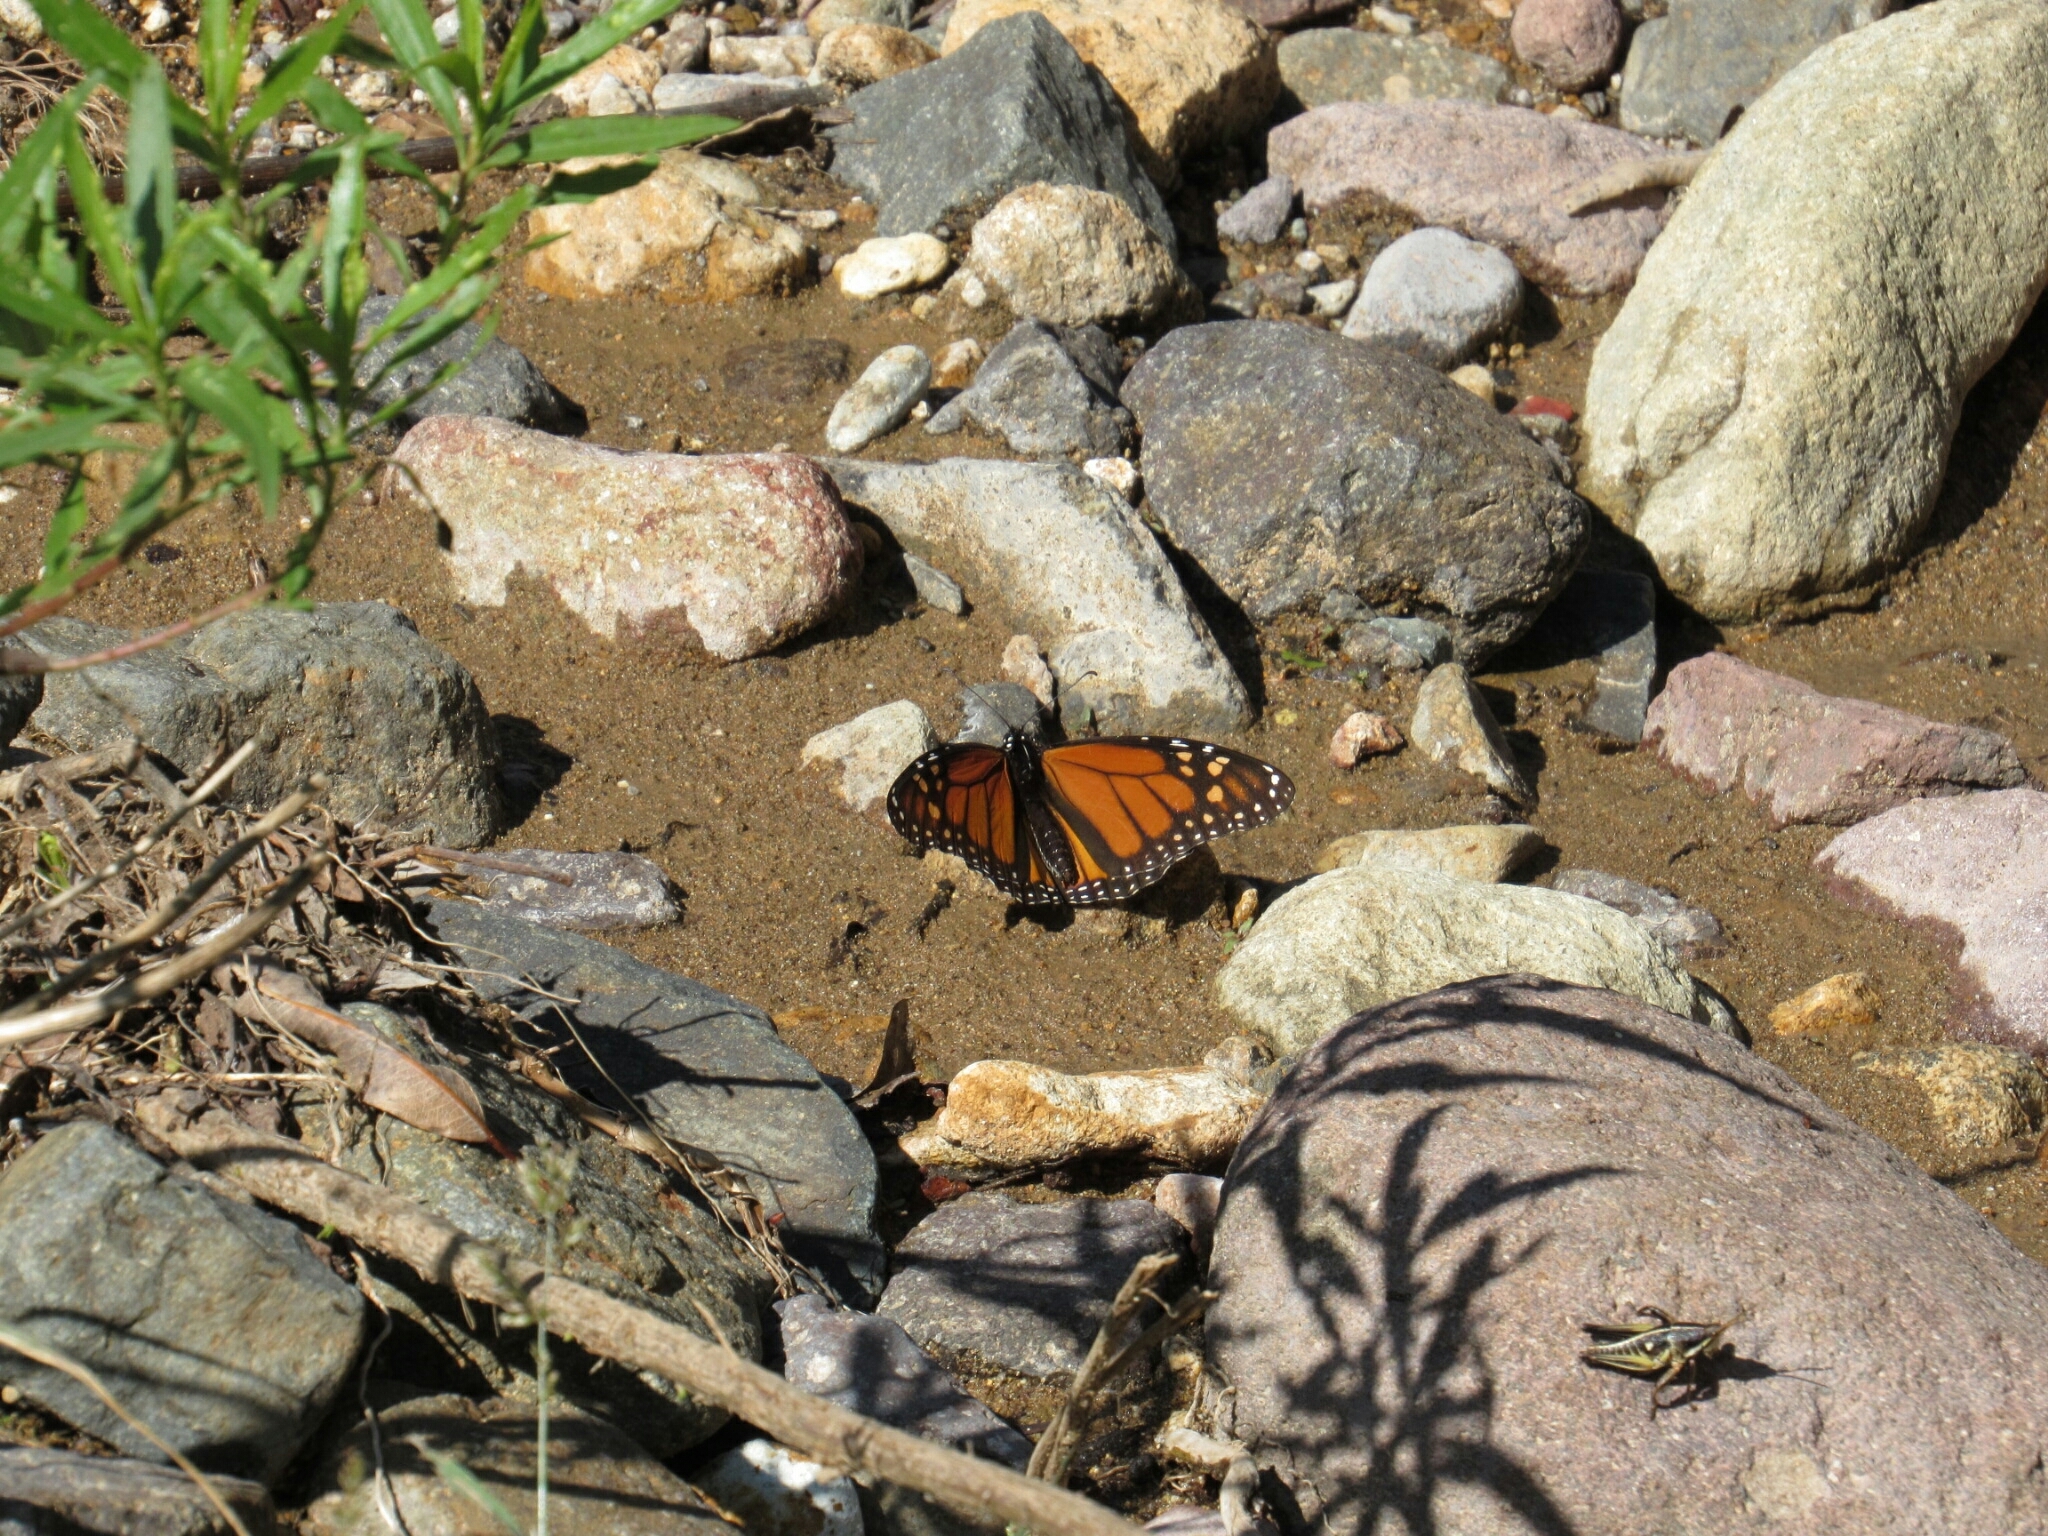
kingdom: Animalia
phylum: Arthropoda
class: Insecta
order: Lepidoptera
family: Nymphalidae
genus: Danaus
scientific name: Danaus plexippus
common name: Monarch
